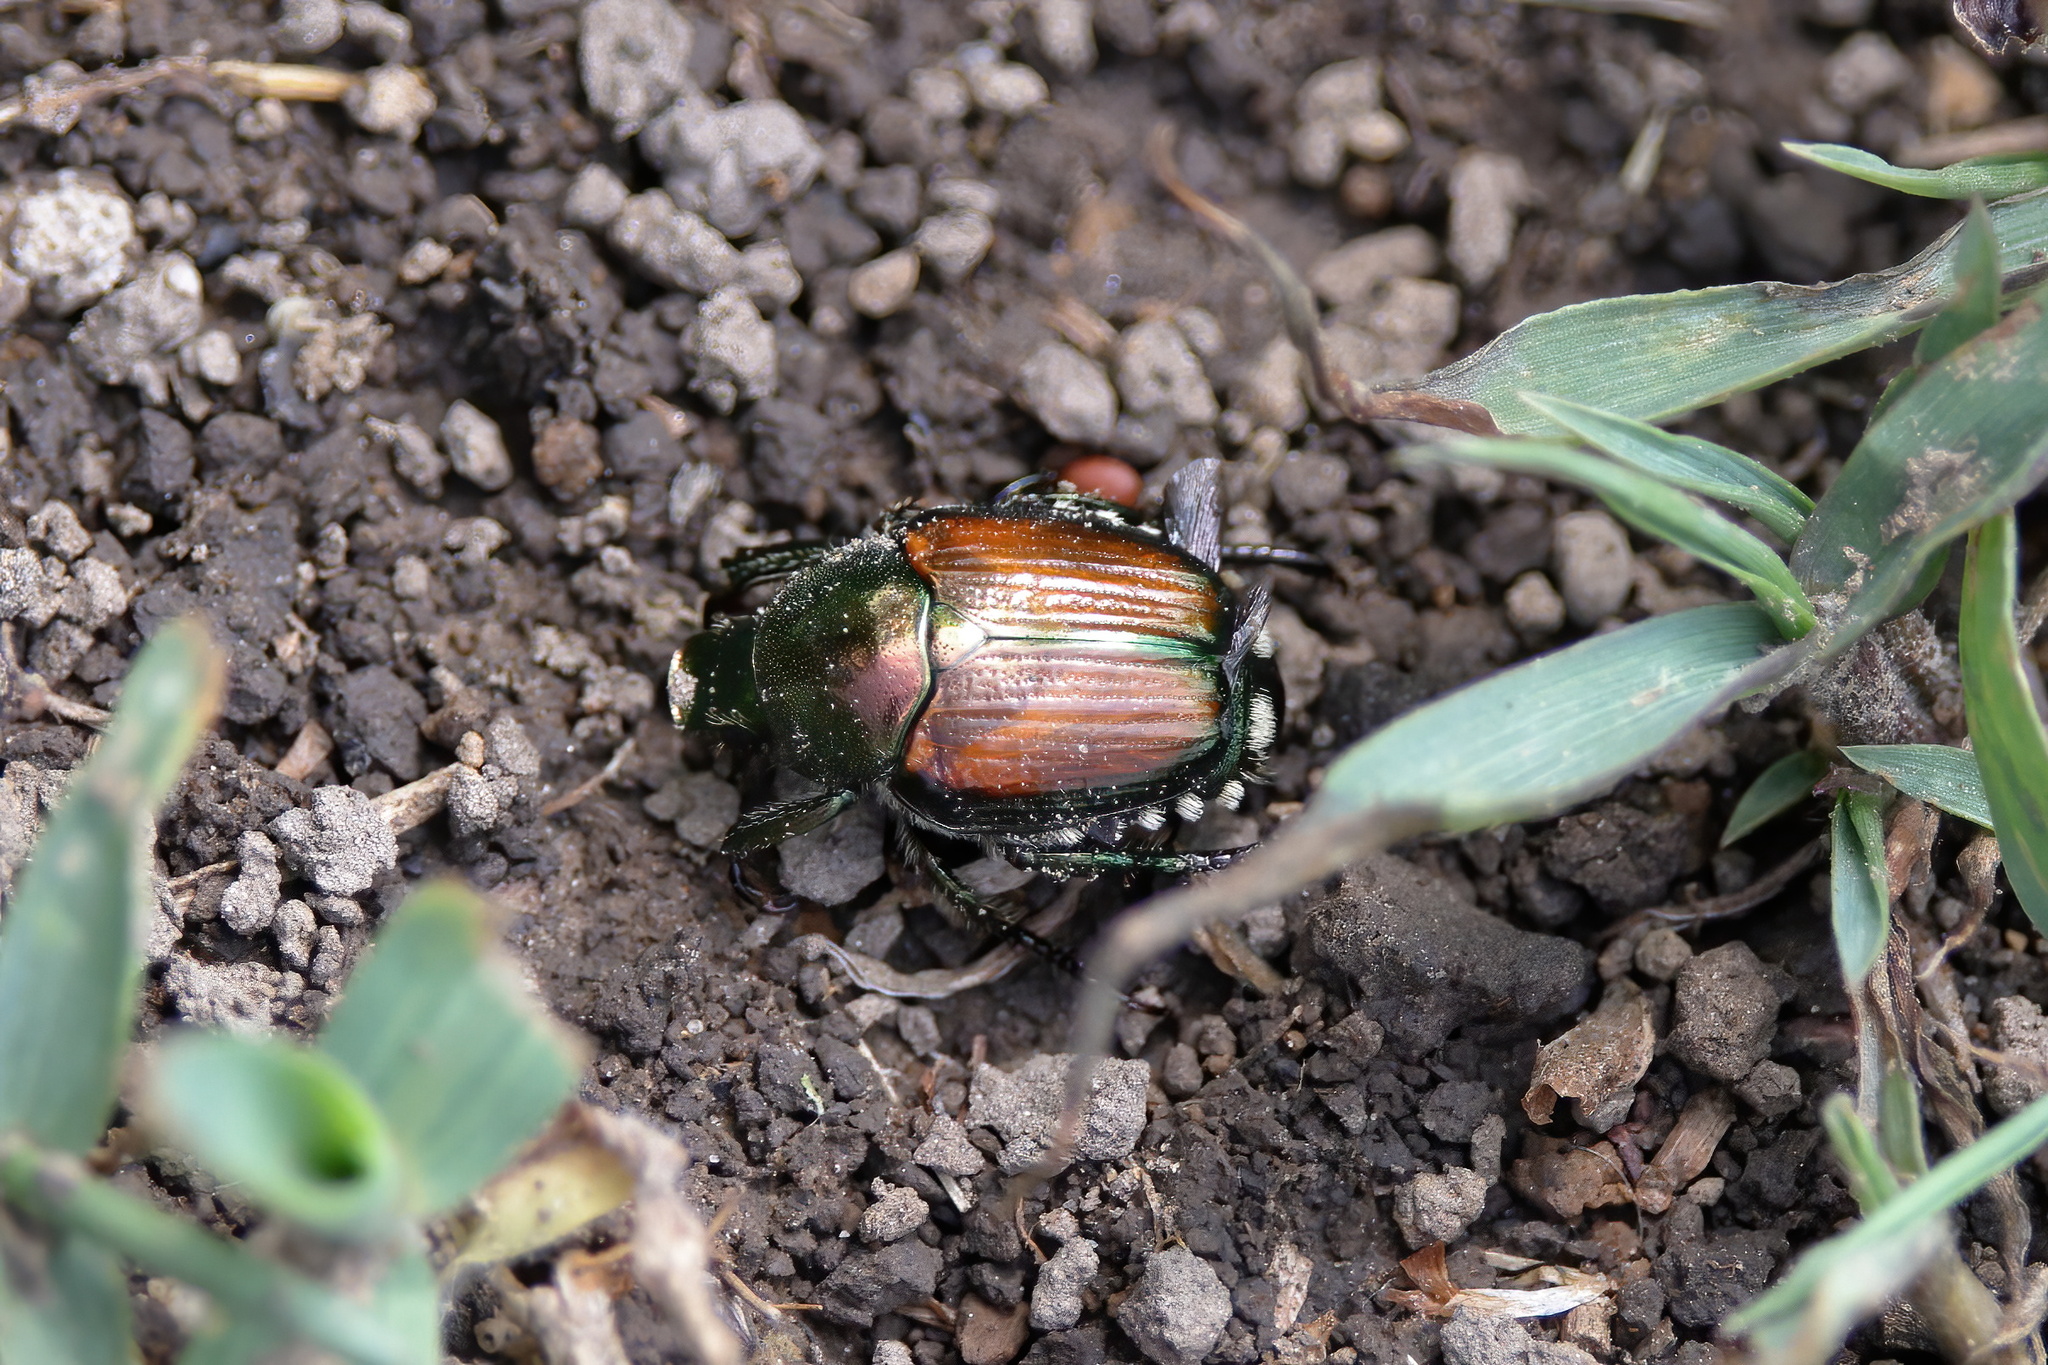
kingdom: Animalia
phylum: Arthropoda
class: Insecta
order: Coleoptera
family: Scarabaeidae
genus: Popillia
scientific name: Popillia japonica
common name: Japanese beetle
